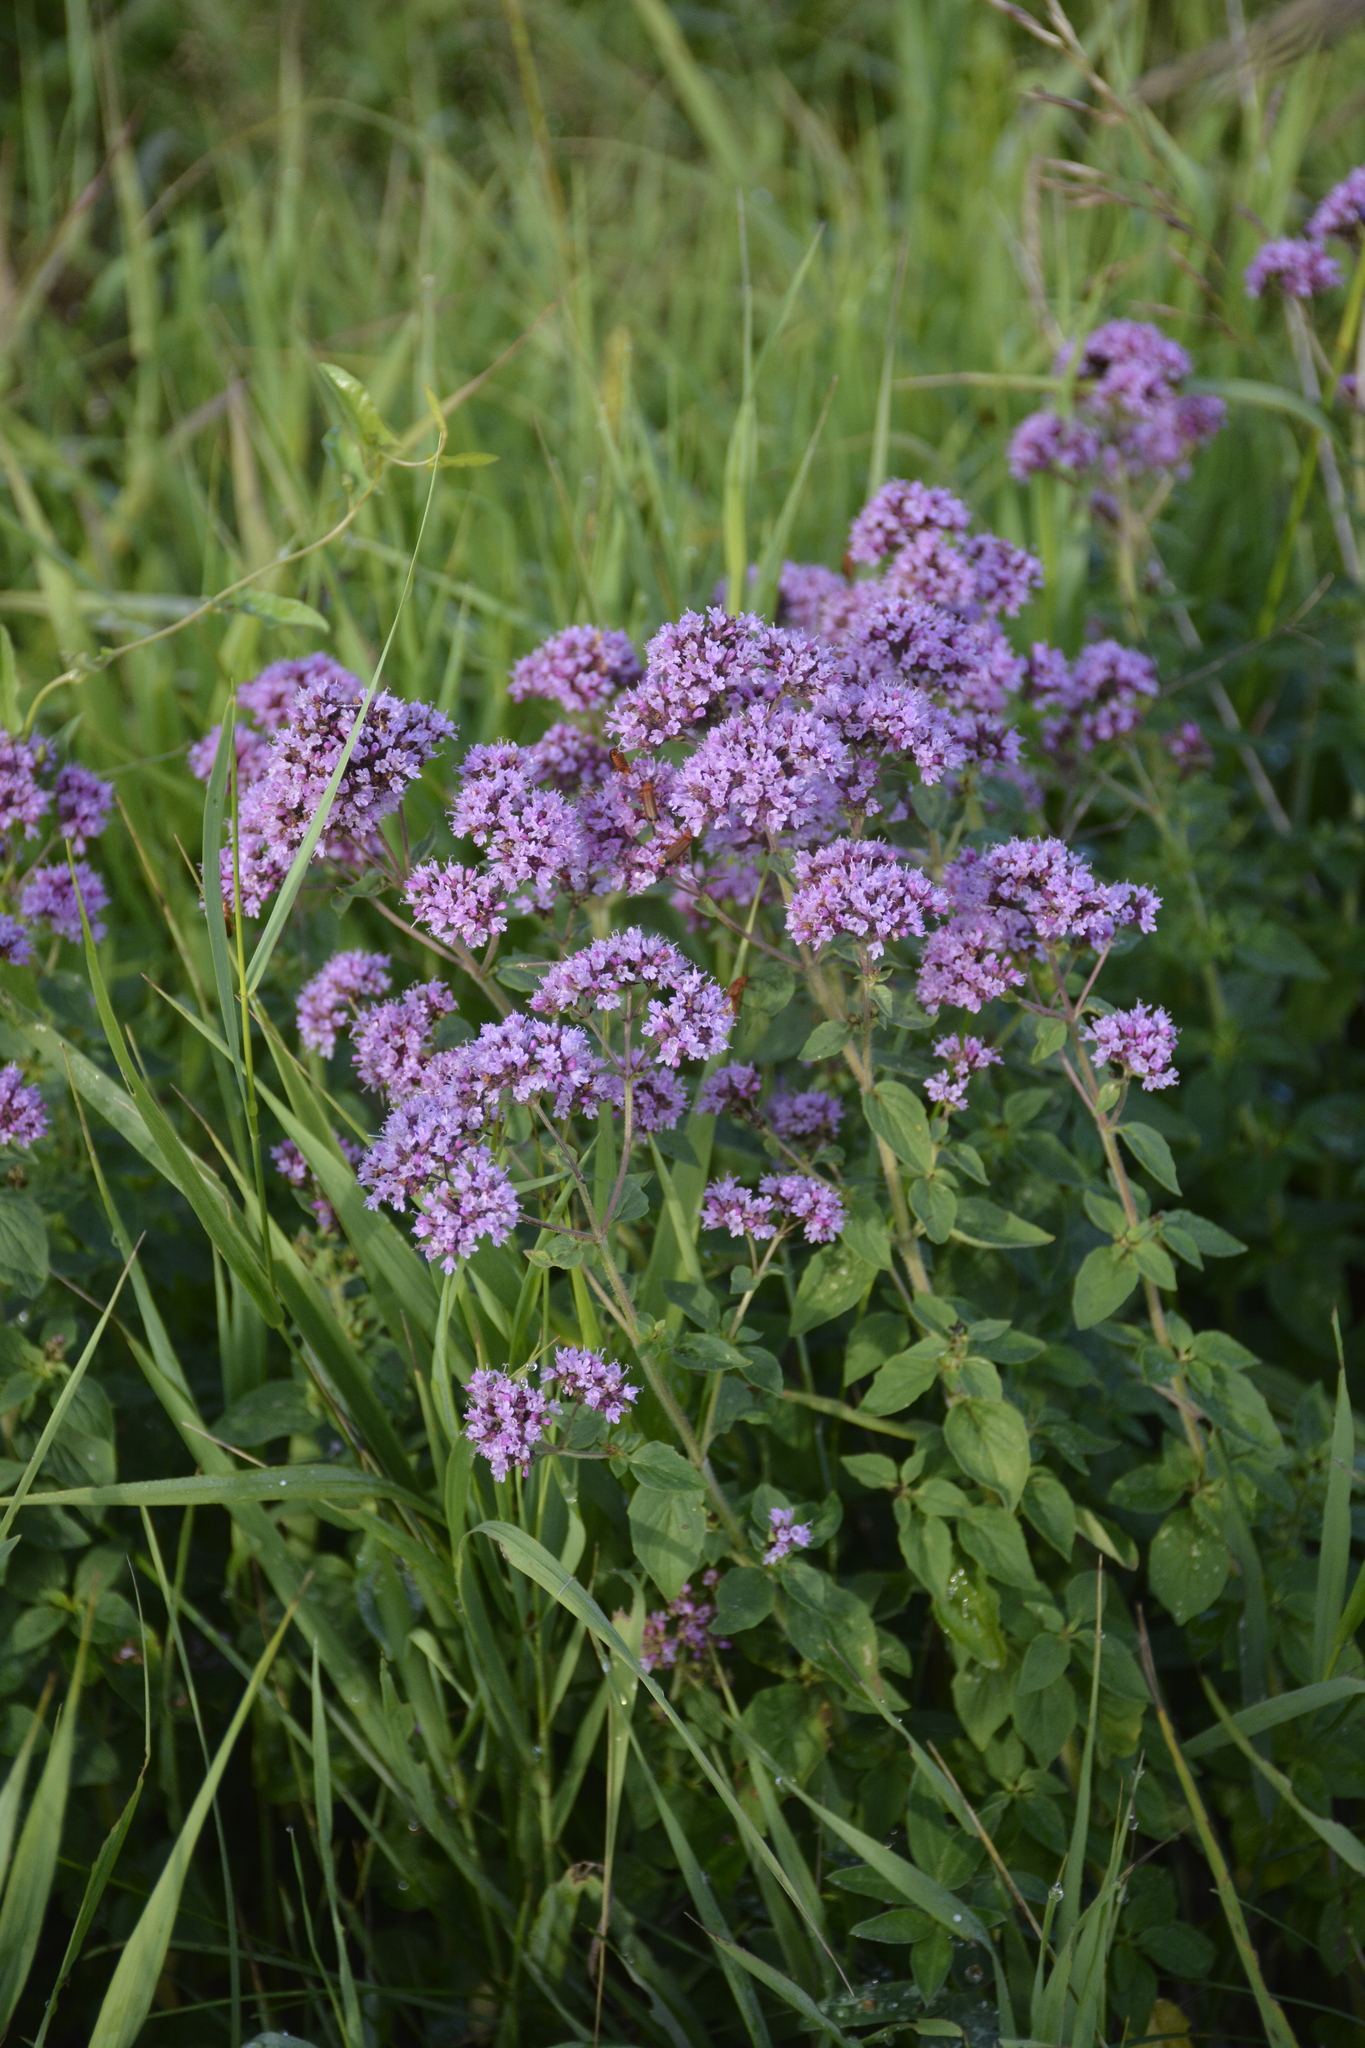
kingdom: Plantae
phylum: Tracheophyta
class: Magnoliopsida
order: Lamiales
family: Lamiaceae
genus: Origanum
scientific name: Origanum vulgare
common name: Wild marjoram
